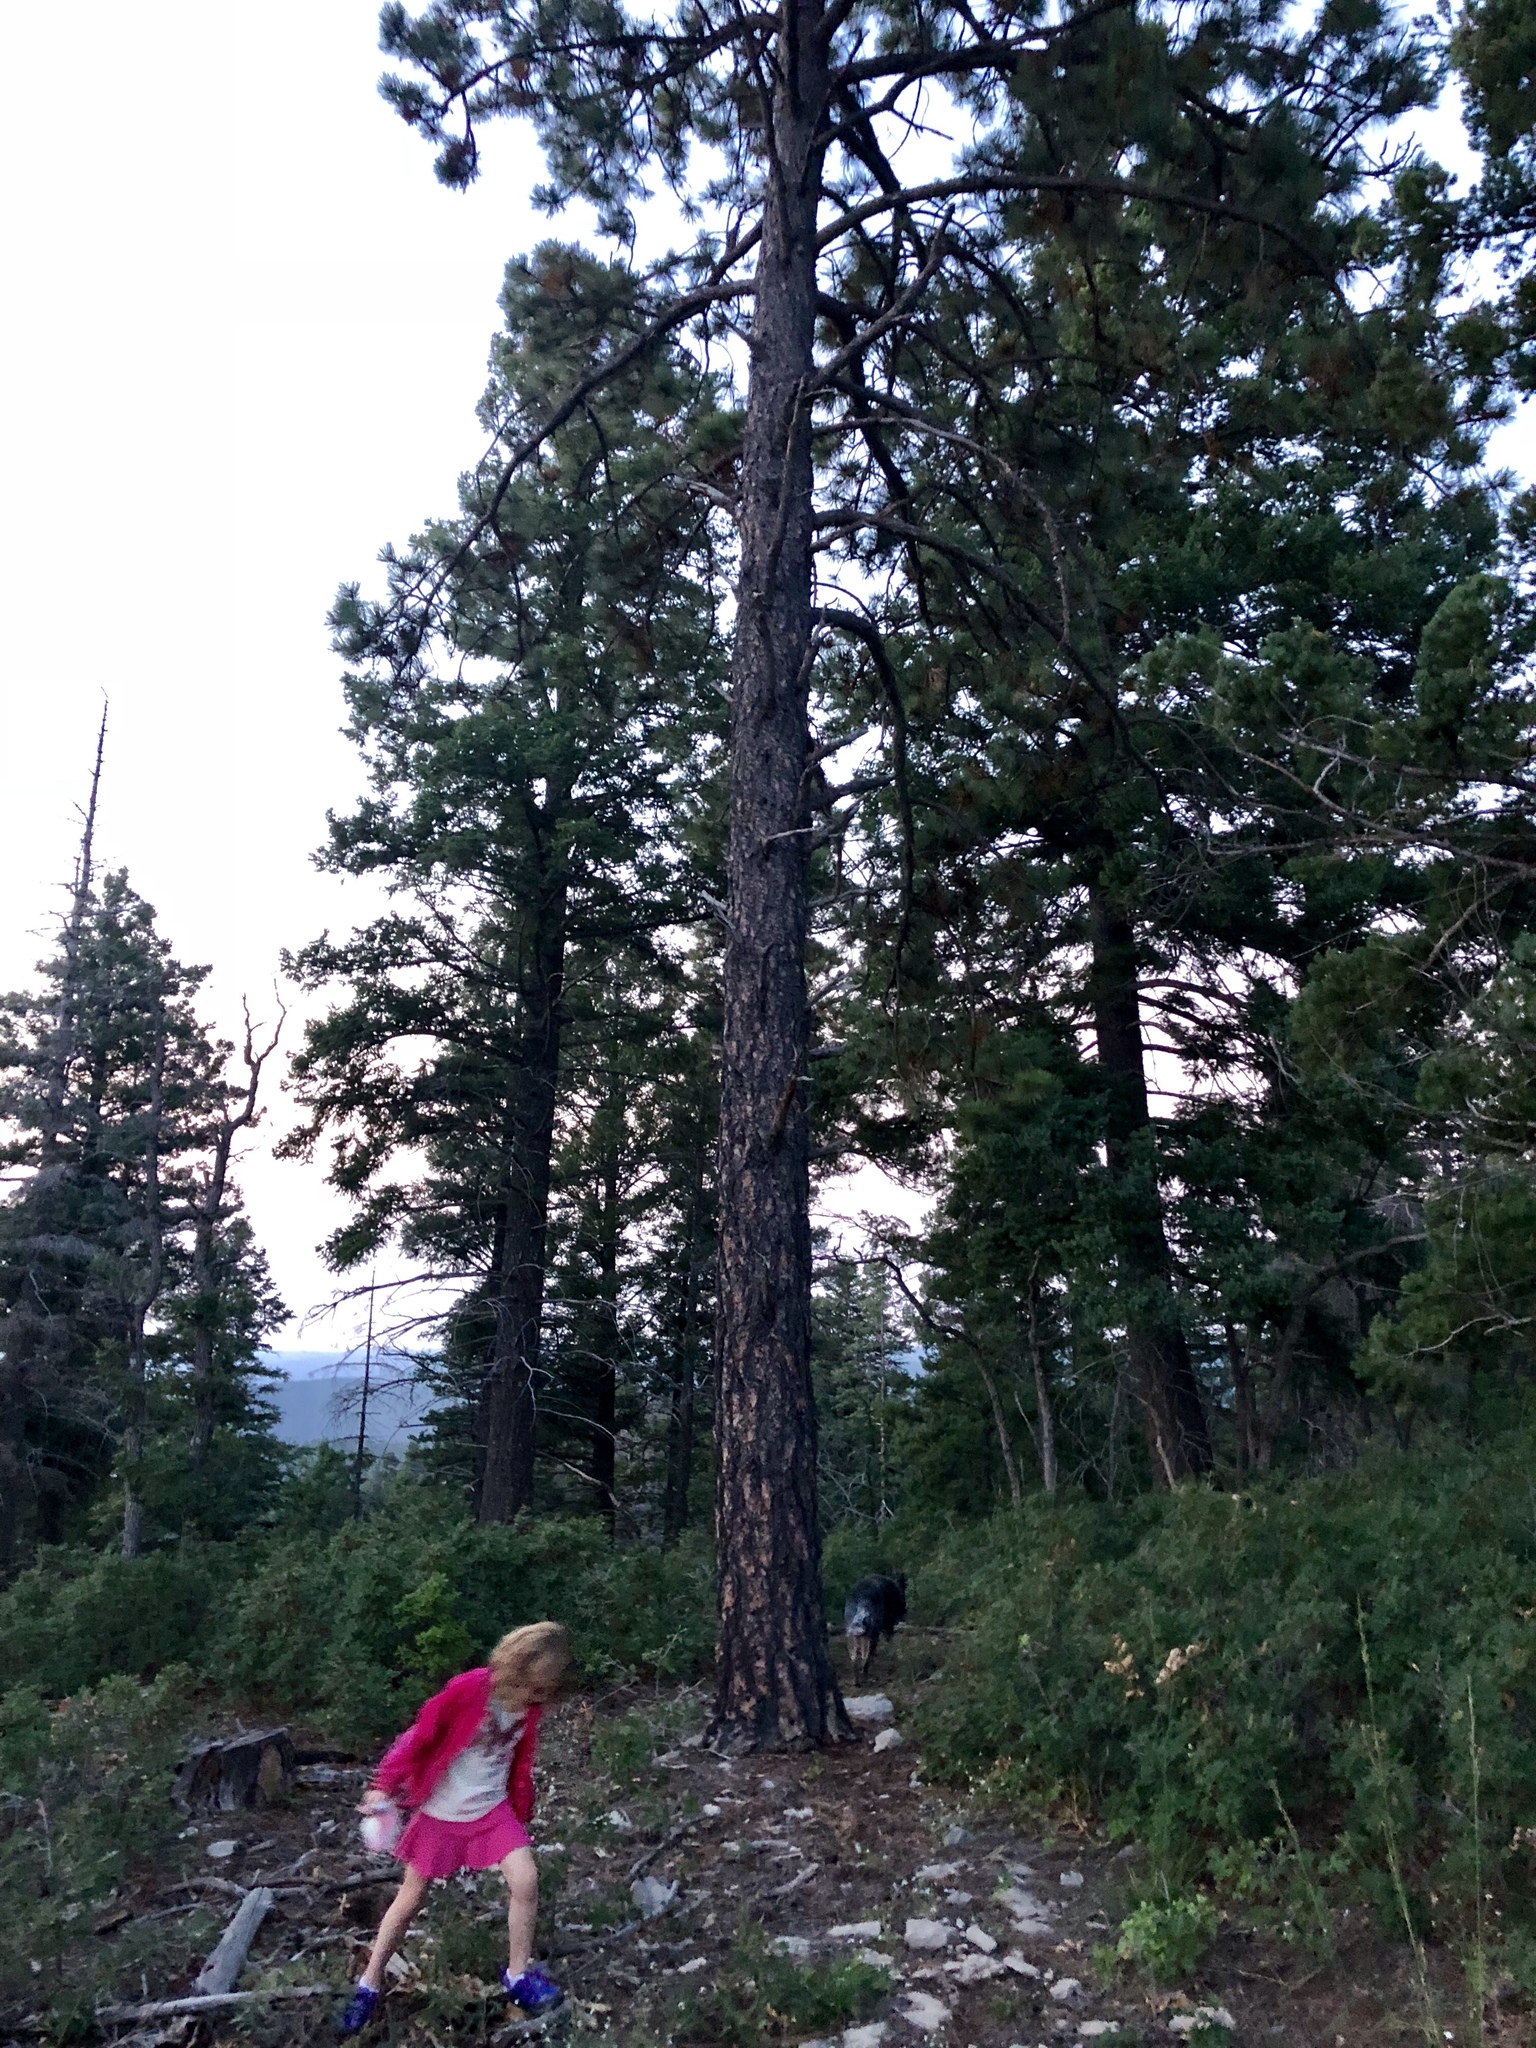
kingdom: Plantae
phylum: Tracheophyta
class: Pinopsida
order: Pinales
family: Pinaceae
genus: Pinus
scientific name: Pinus ponderosa
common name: Western yellow-pine
